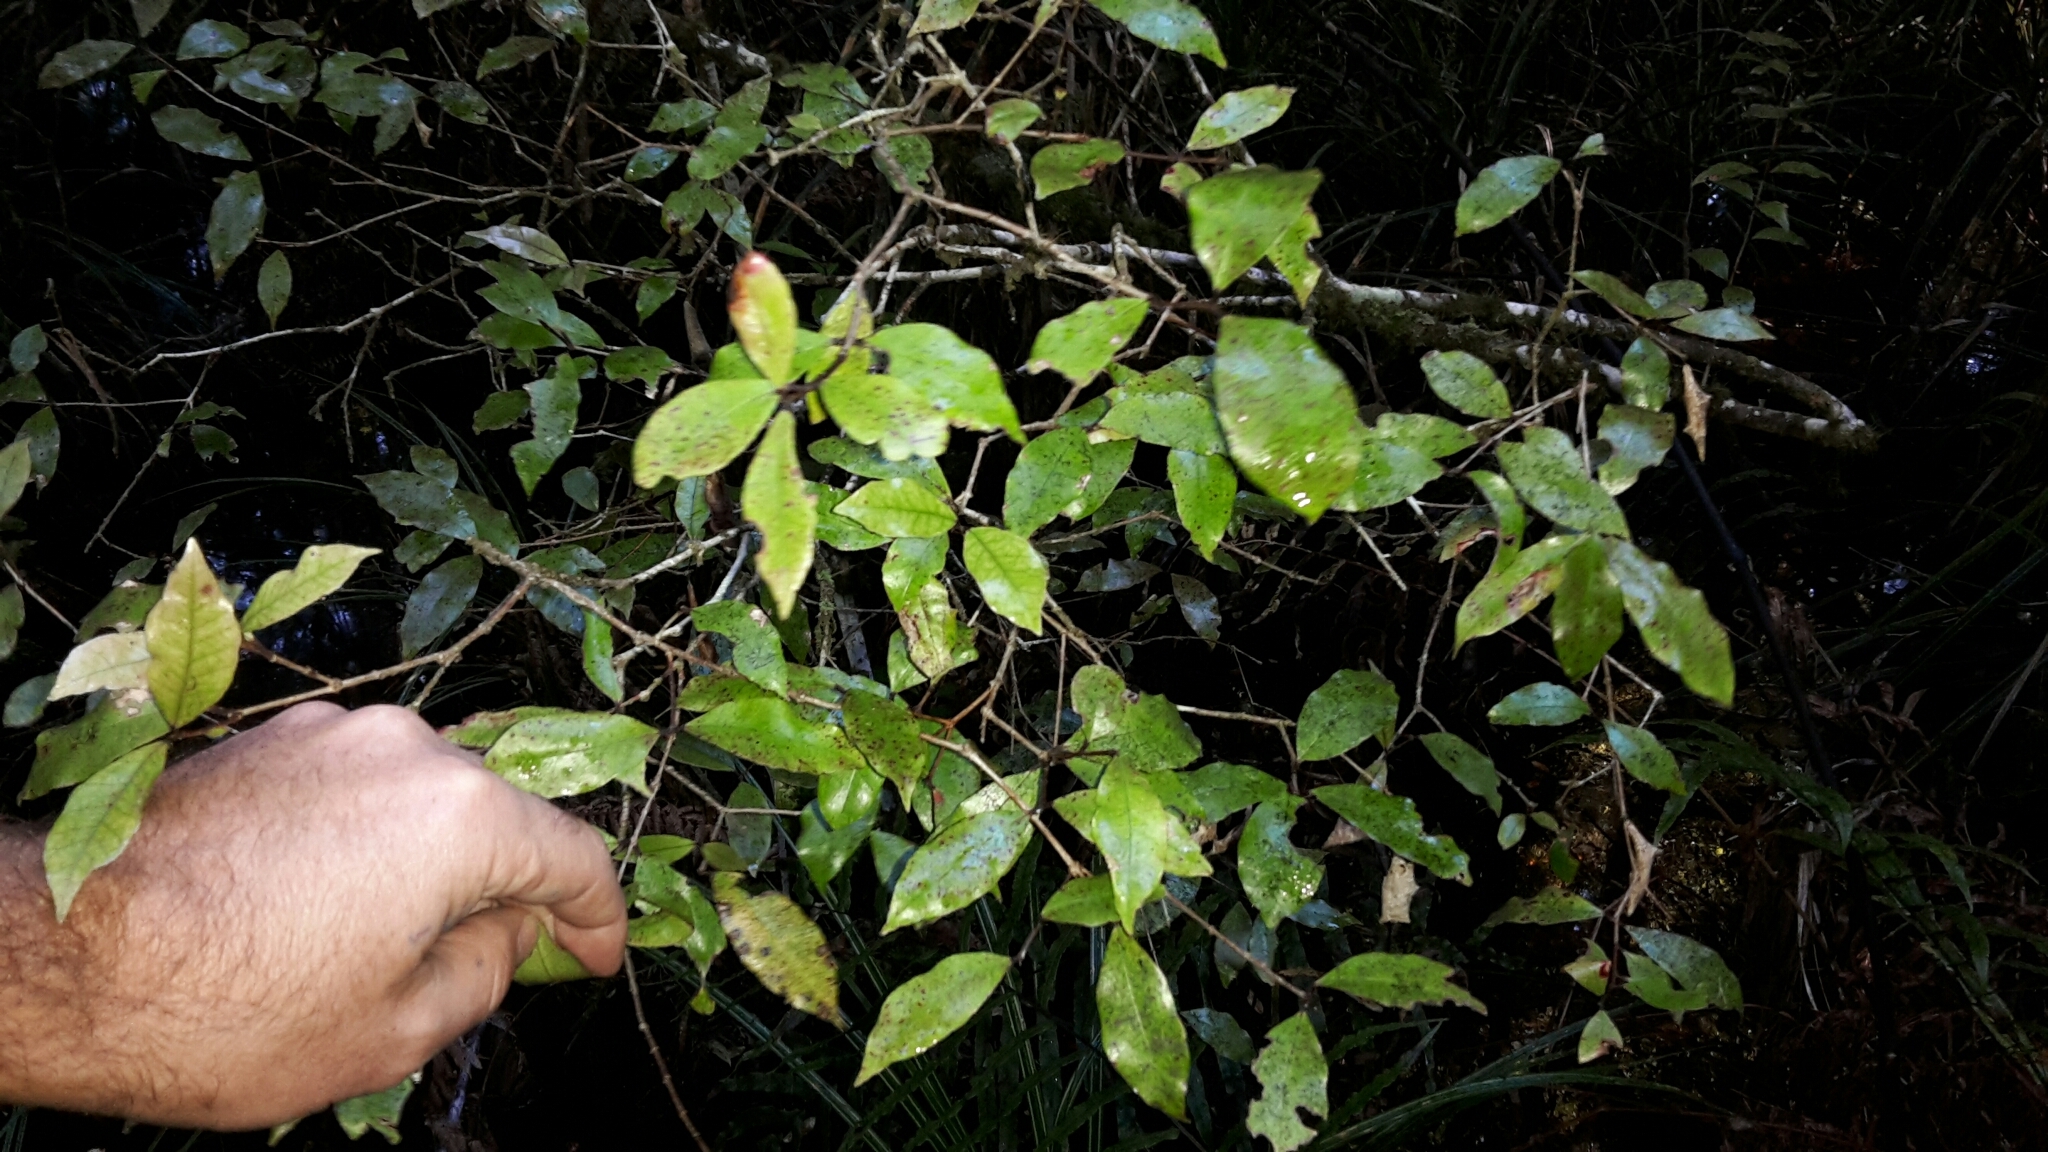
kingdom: Plantae
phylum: Tracheophyta
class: Magnoliopsida
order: Myrtales
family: Myrtaceae
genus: Syzygium
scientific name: Syzygium maire
